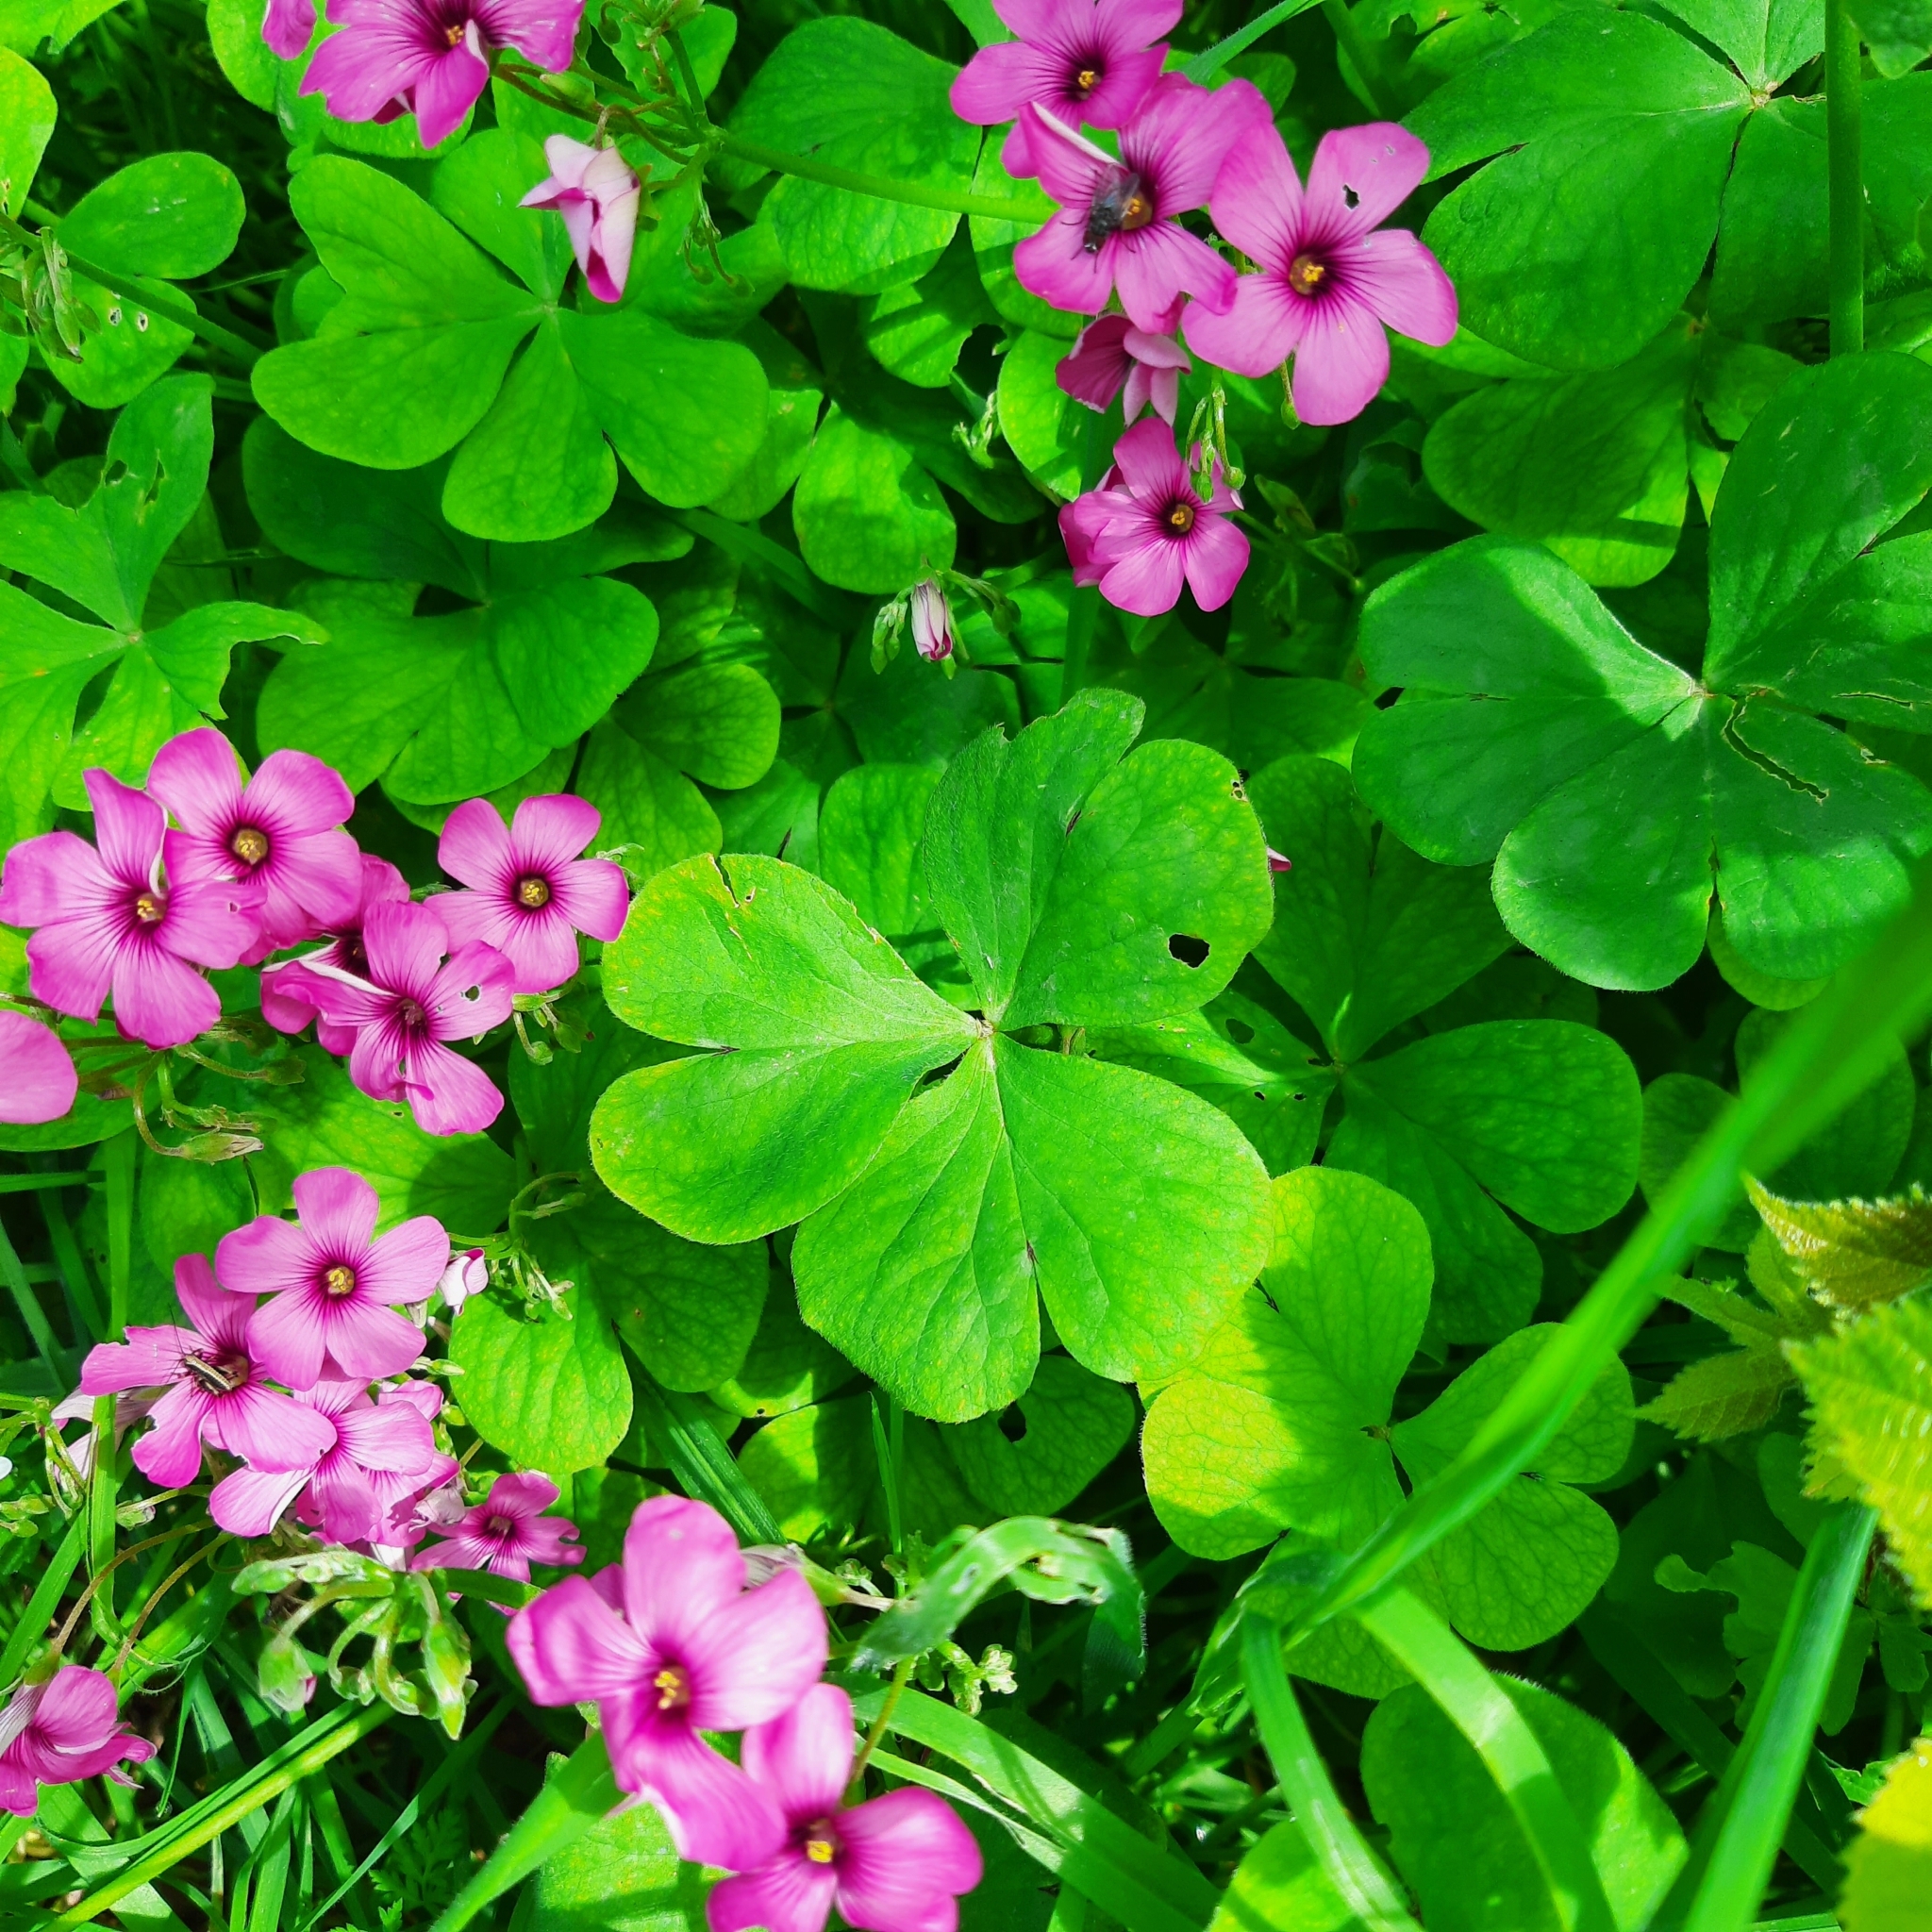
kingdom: Plantae
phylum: Tracheophyta
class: Magnoliopsida
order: Oxalidales
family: Oxalidaceae
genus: Oxalis
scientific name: Oxalis articulata
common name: Pink-sorrel
